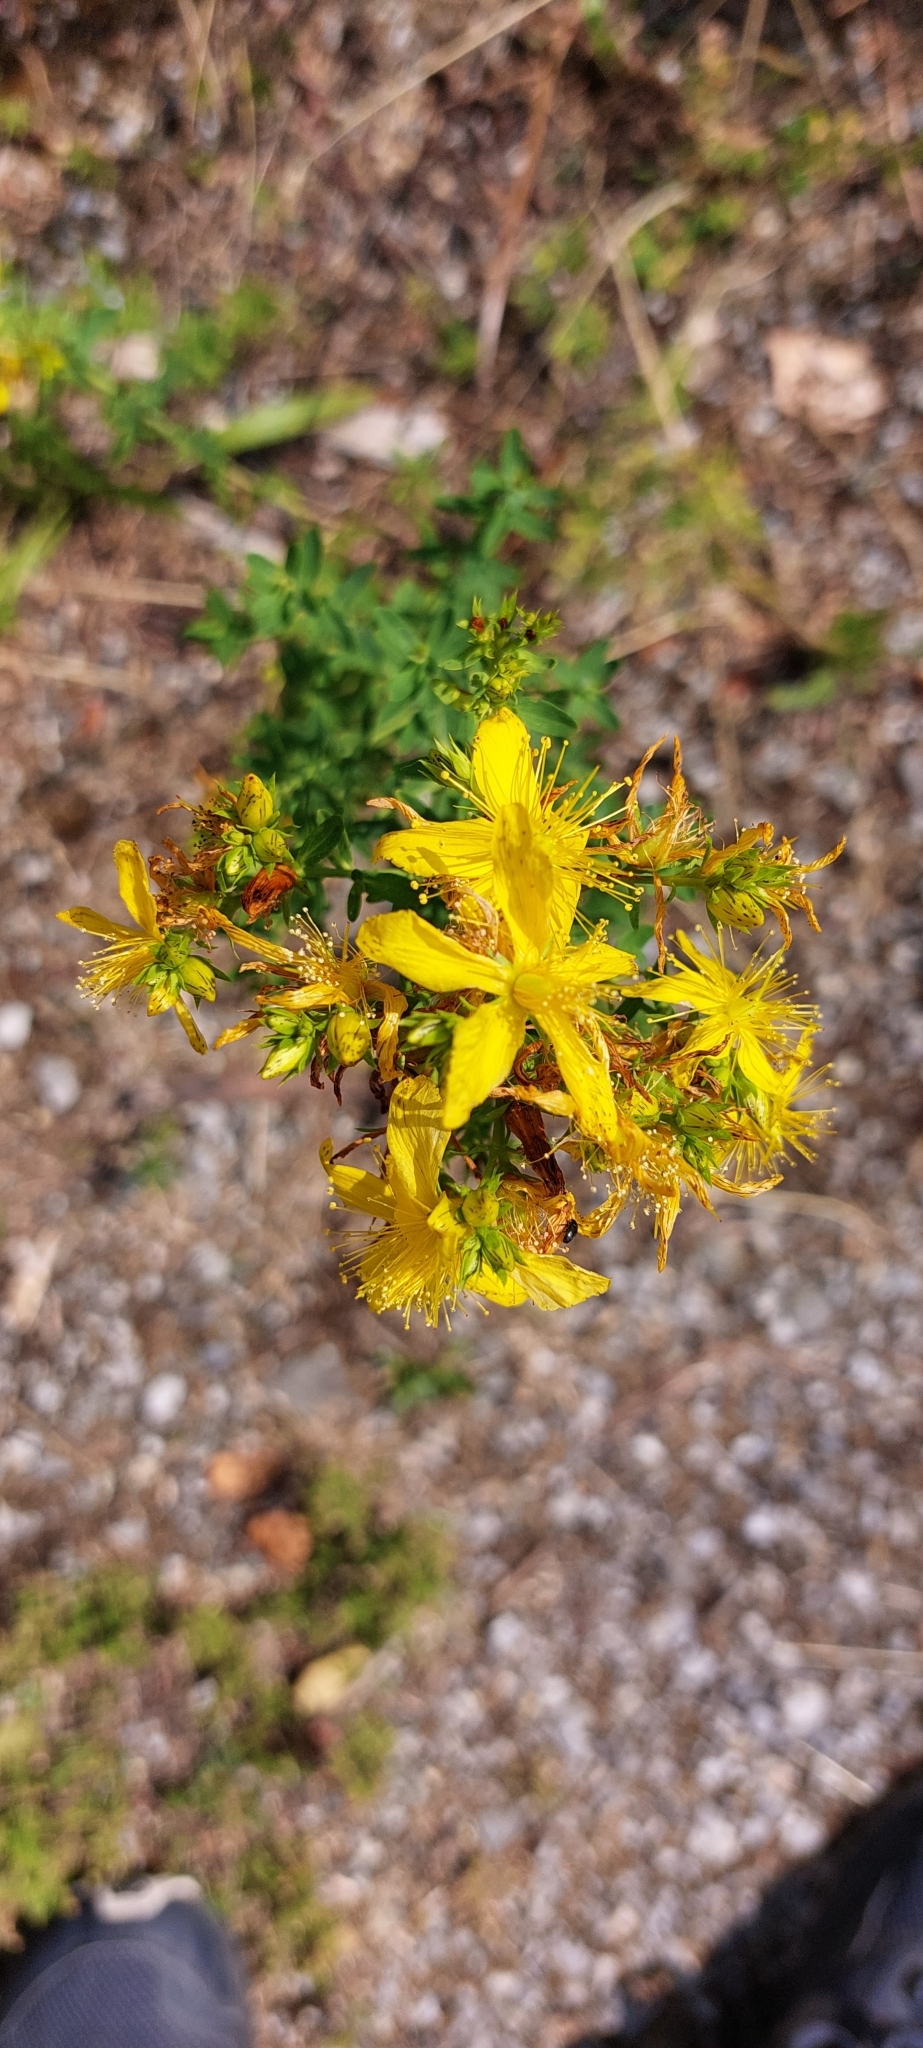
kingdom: Plantae
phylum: Tracheophyta
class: Magnoliopsida
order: Malpighiales
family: Hypericaceae
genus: Hypericum
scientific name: Hypericum perforatum
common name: Common st. johnswort
